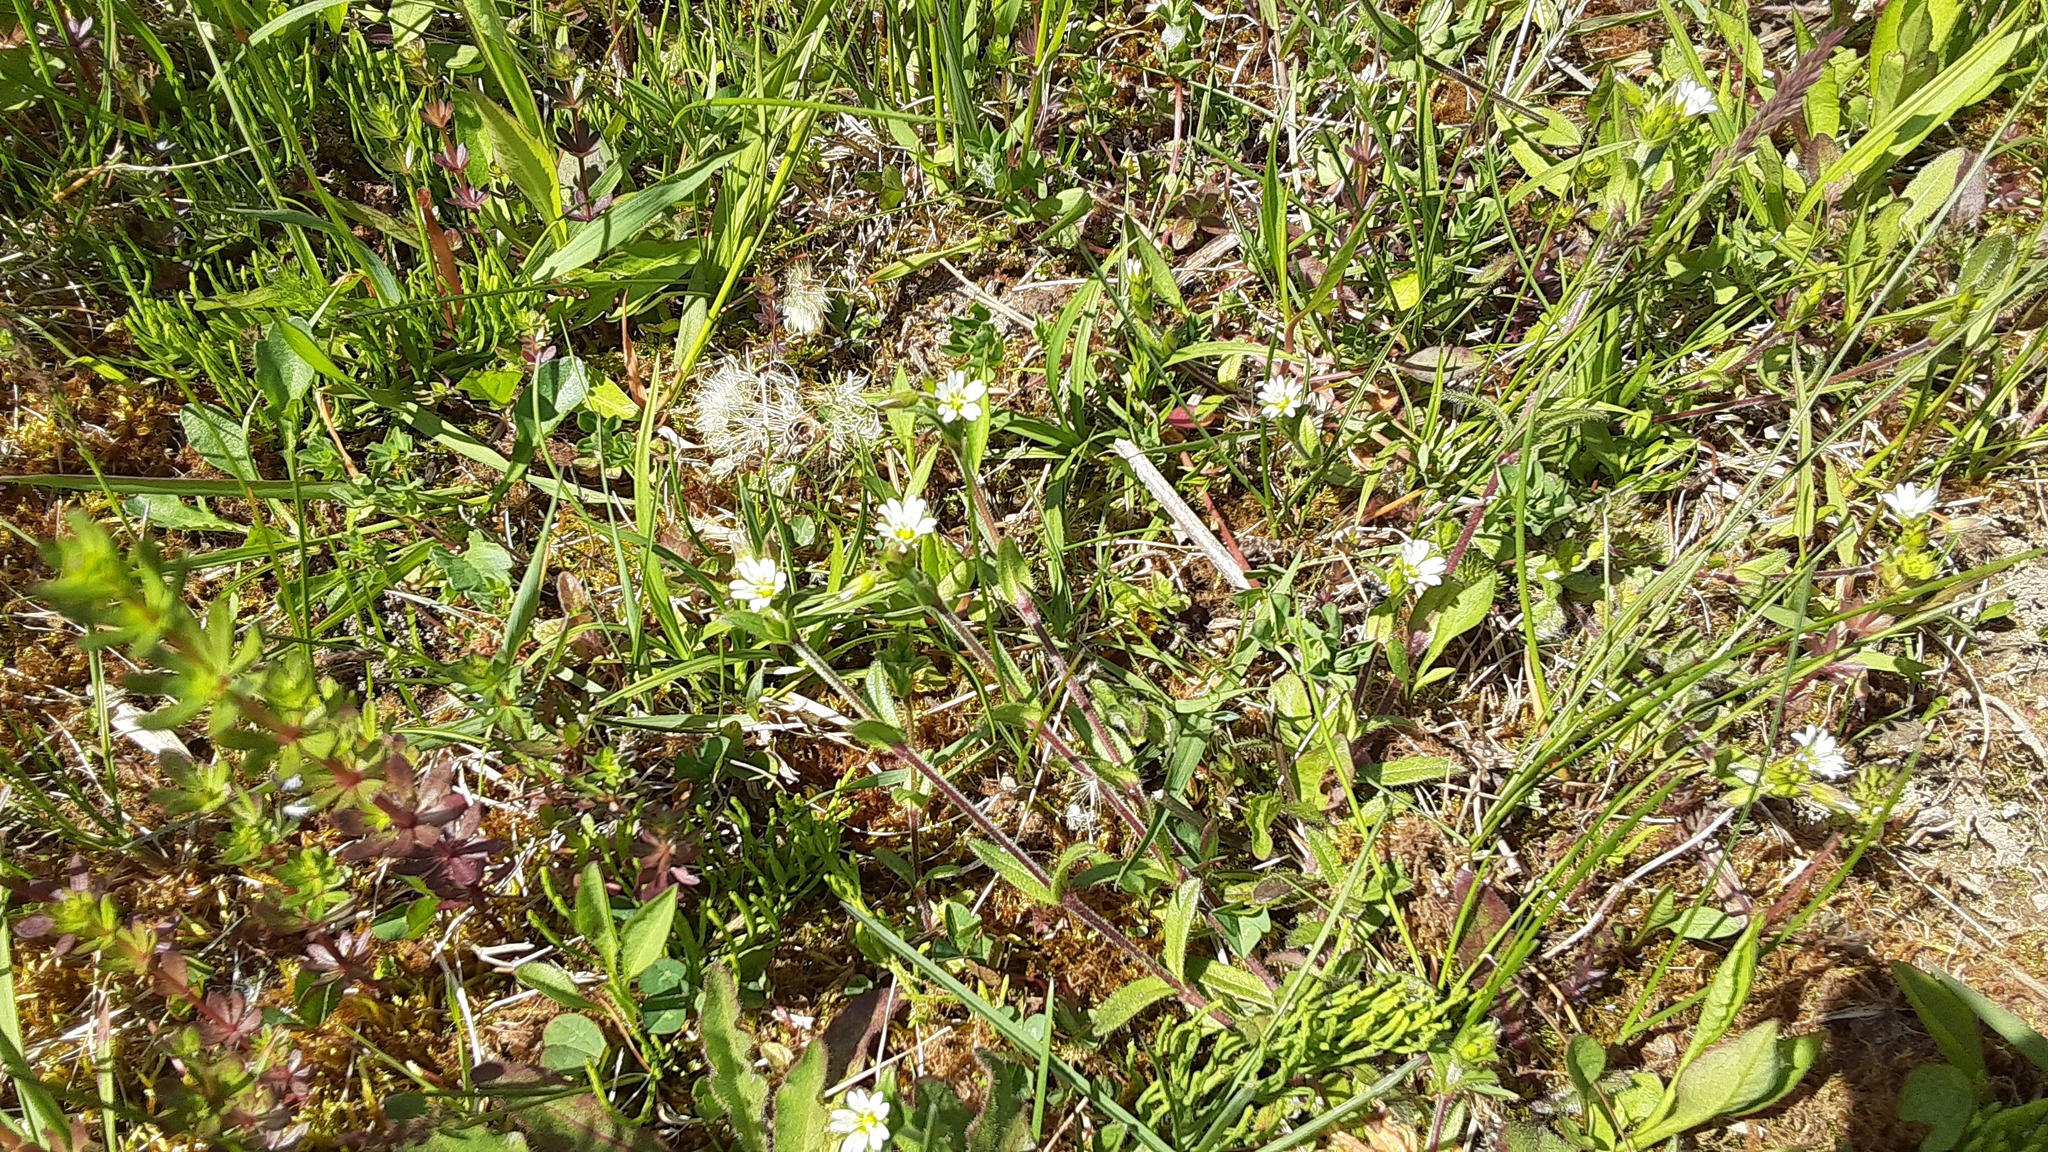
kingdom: Plantae
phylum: Tracheophyta
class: Magnoliopsida
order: Caryophyllales
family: Caryophyllaceae
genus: Cerastium
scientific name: Cerastium fontanum
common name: Common mouse-ear
